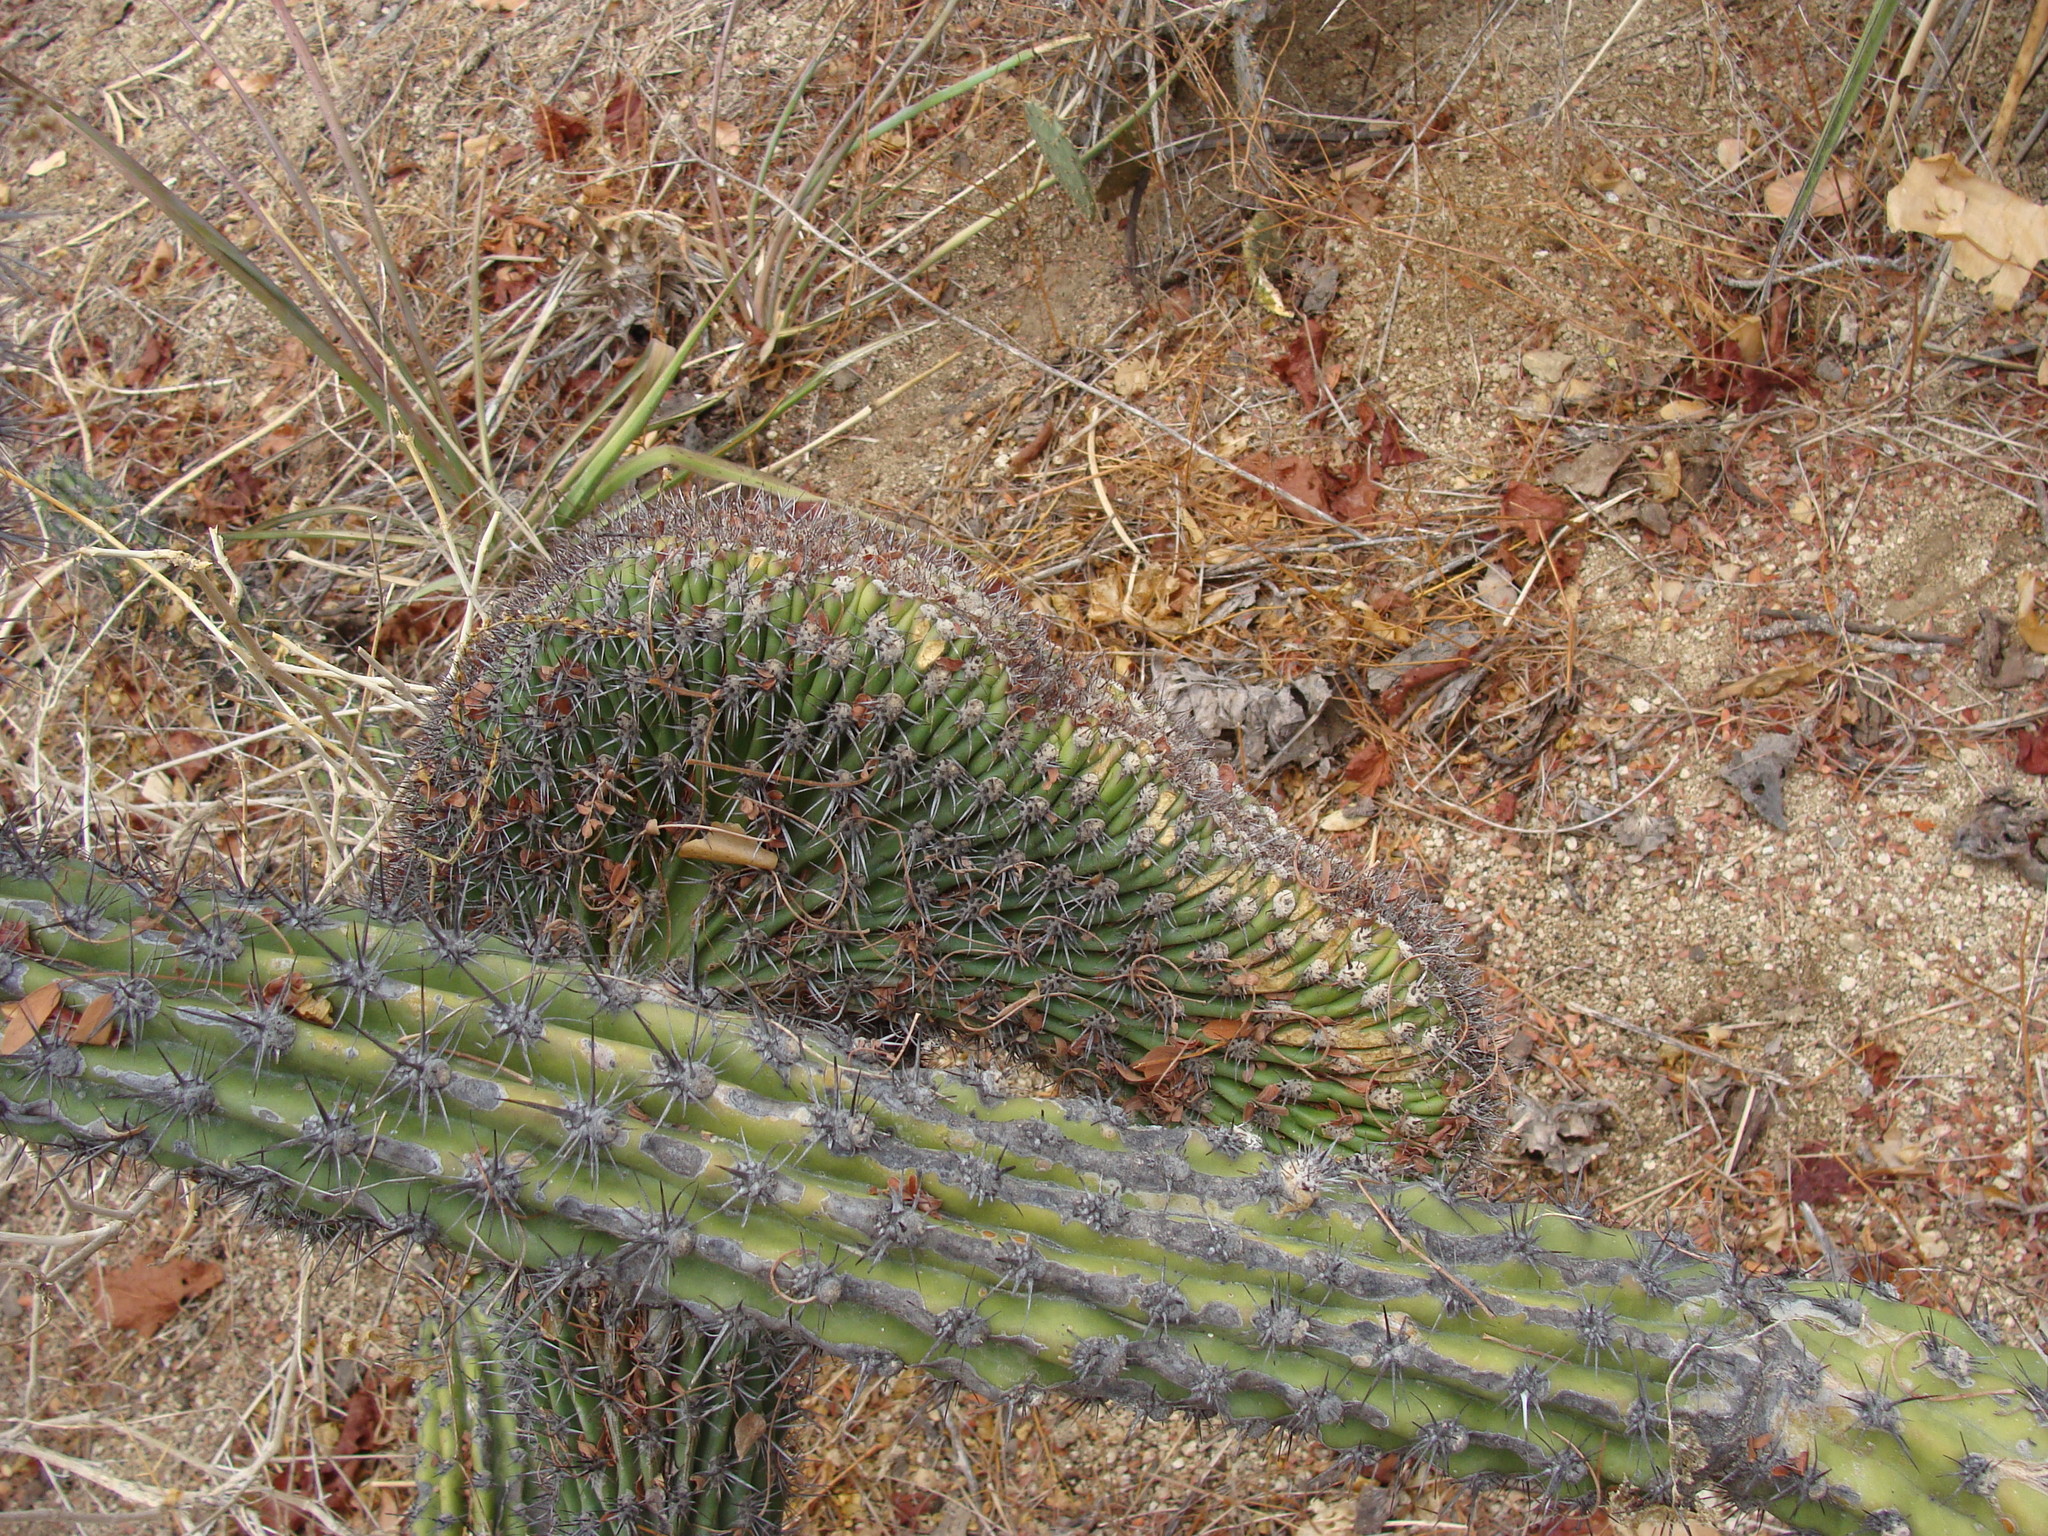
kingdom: Plantae
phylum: Tracheophyta
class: Magnoliopsida
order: Caryophyllales
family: Cactaceae
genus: Stenocereus
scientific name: Stenocereus gummosus
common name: Dagger cactus
